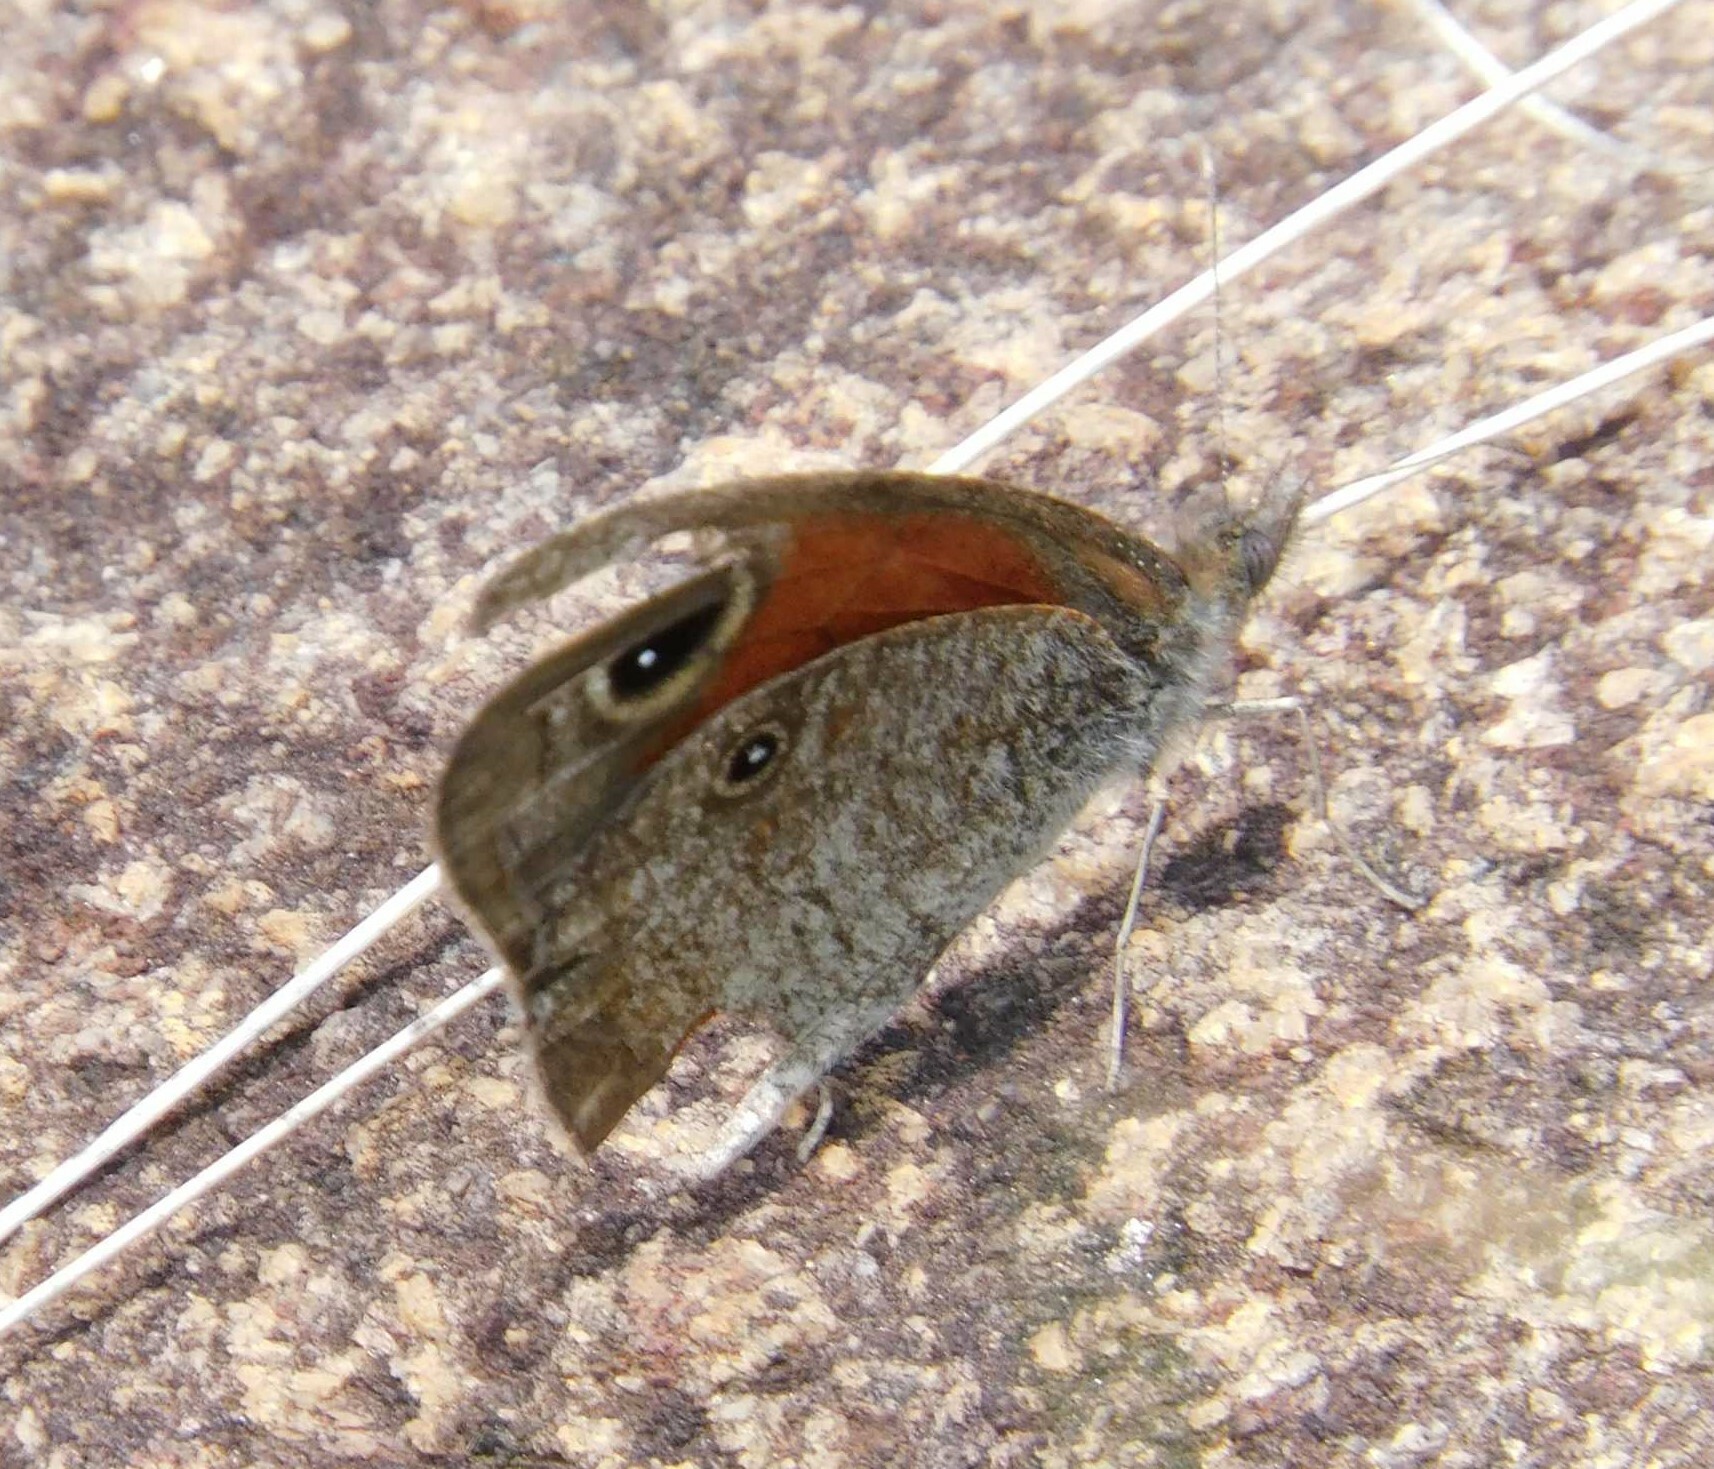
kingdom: Animalia
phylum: Arthropoda
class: Insecta
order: Lepidoptera
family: Nymphalidae
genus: Stygionympha
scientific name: Stygionympha wichgrafi
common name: Wichgraf’s hillside brown
